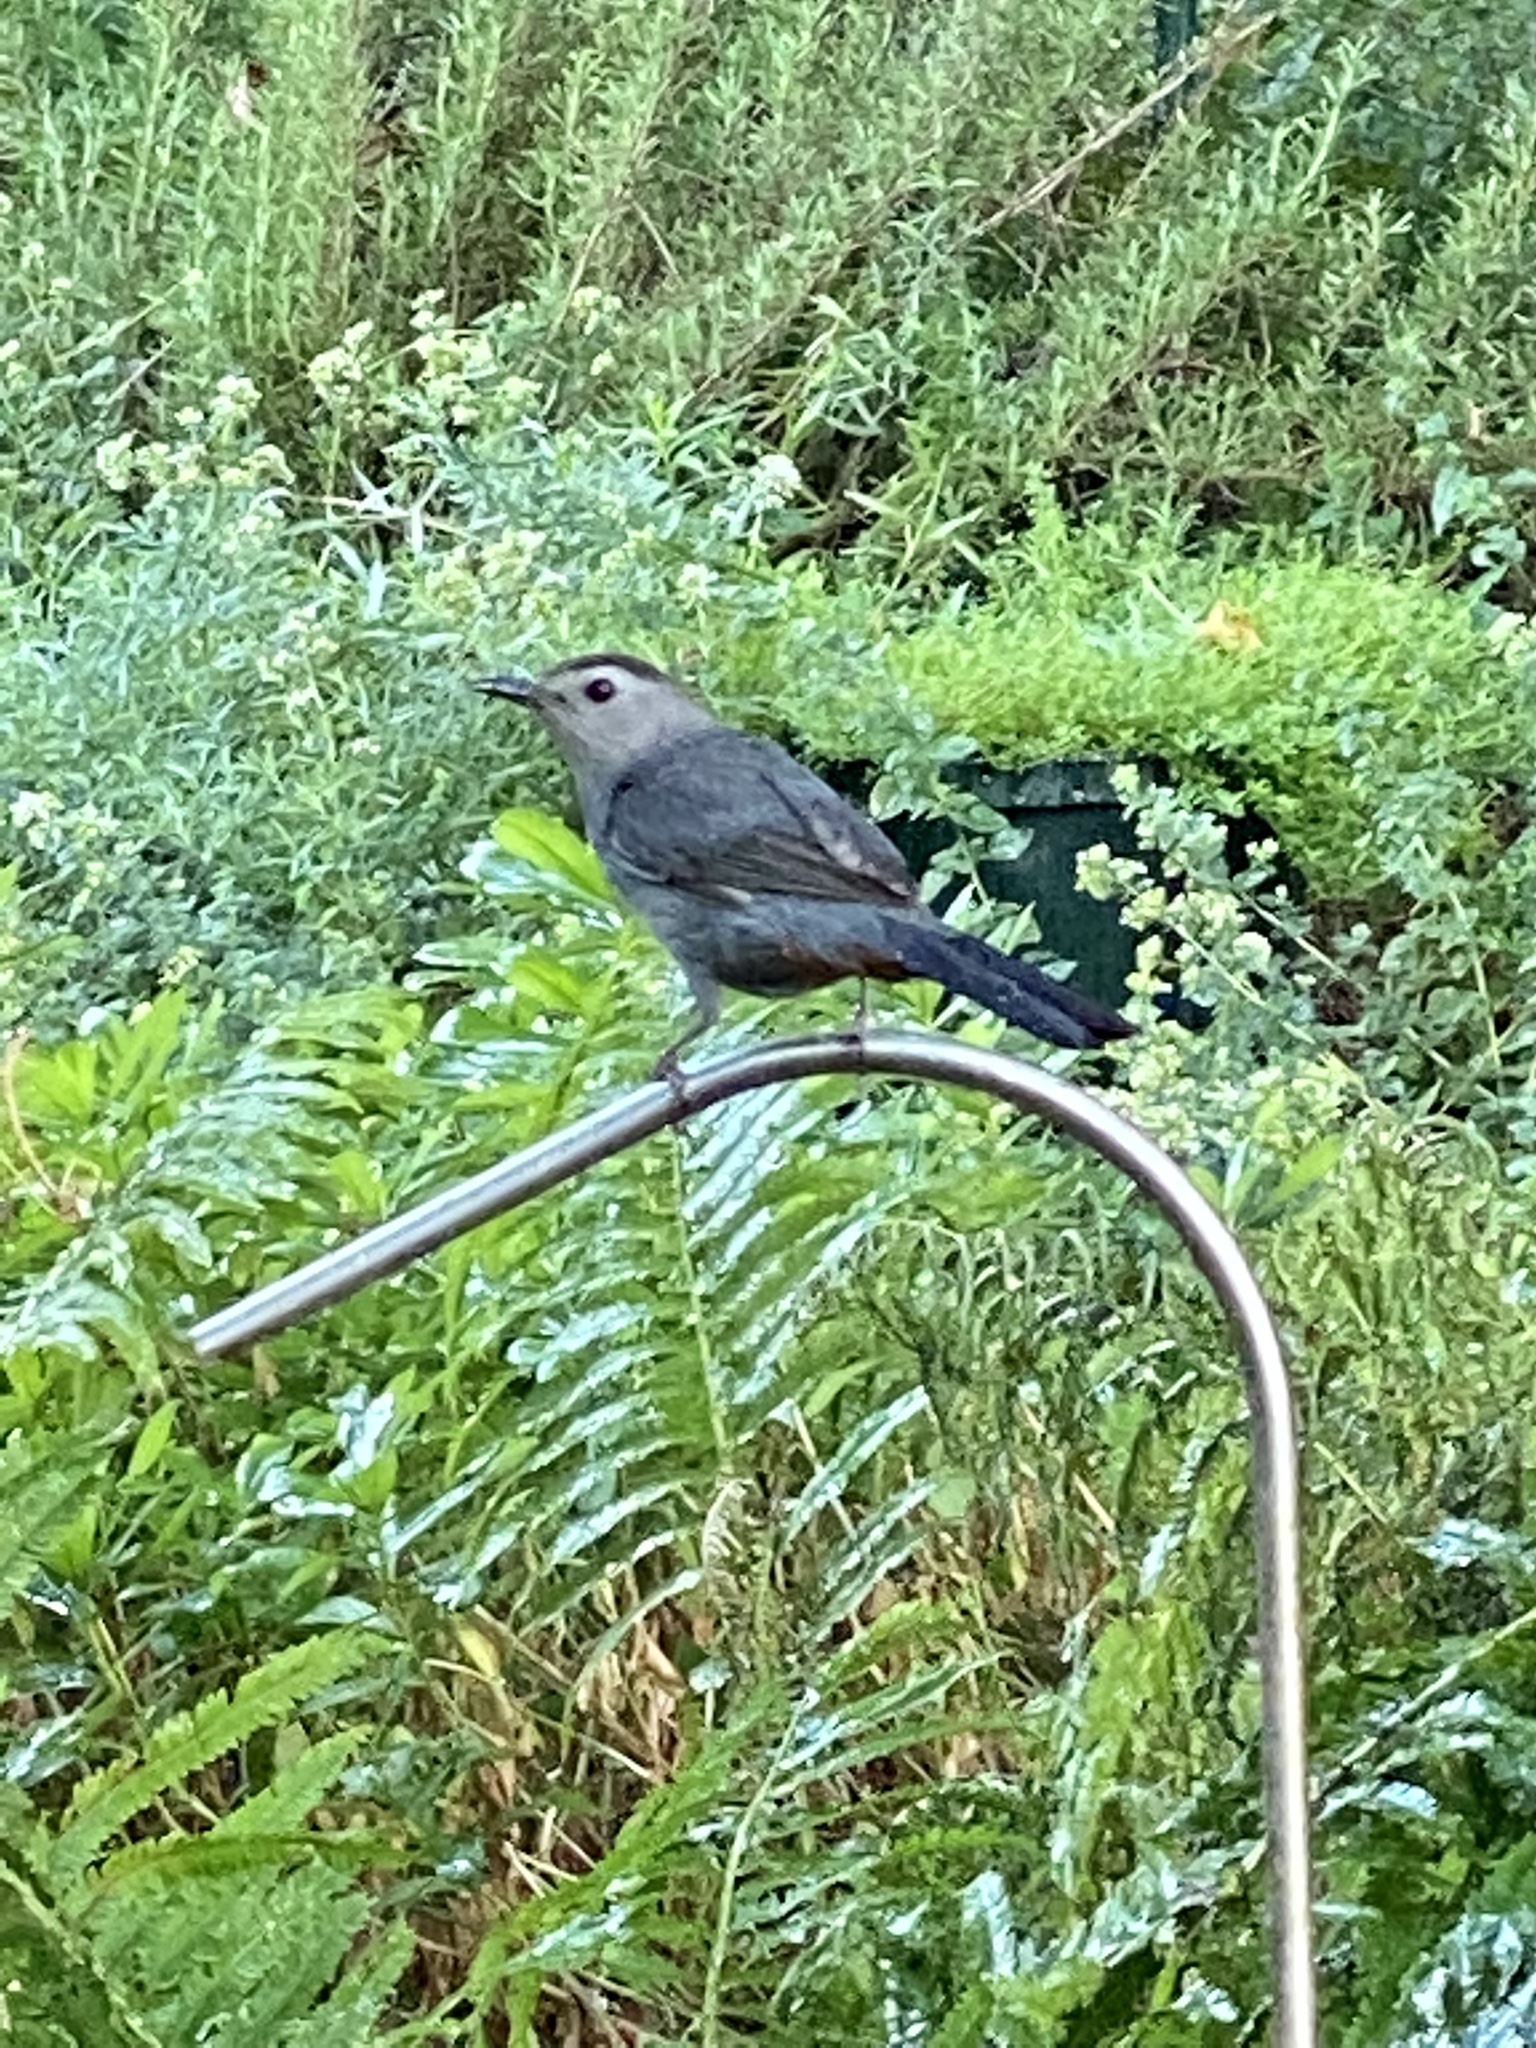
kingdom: Animalia
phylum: Chordata
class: Aves
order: Passeriformes
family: Mimidae
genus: Dumetella
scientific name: Dumetella carolinensis
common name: Gray catbird
